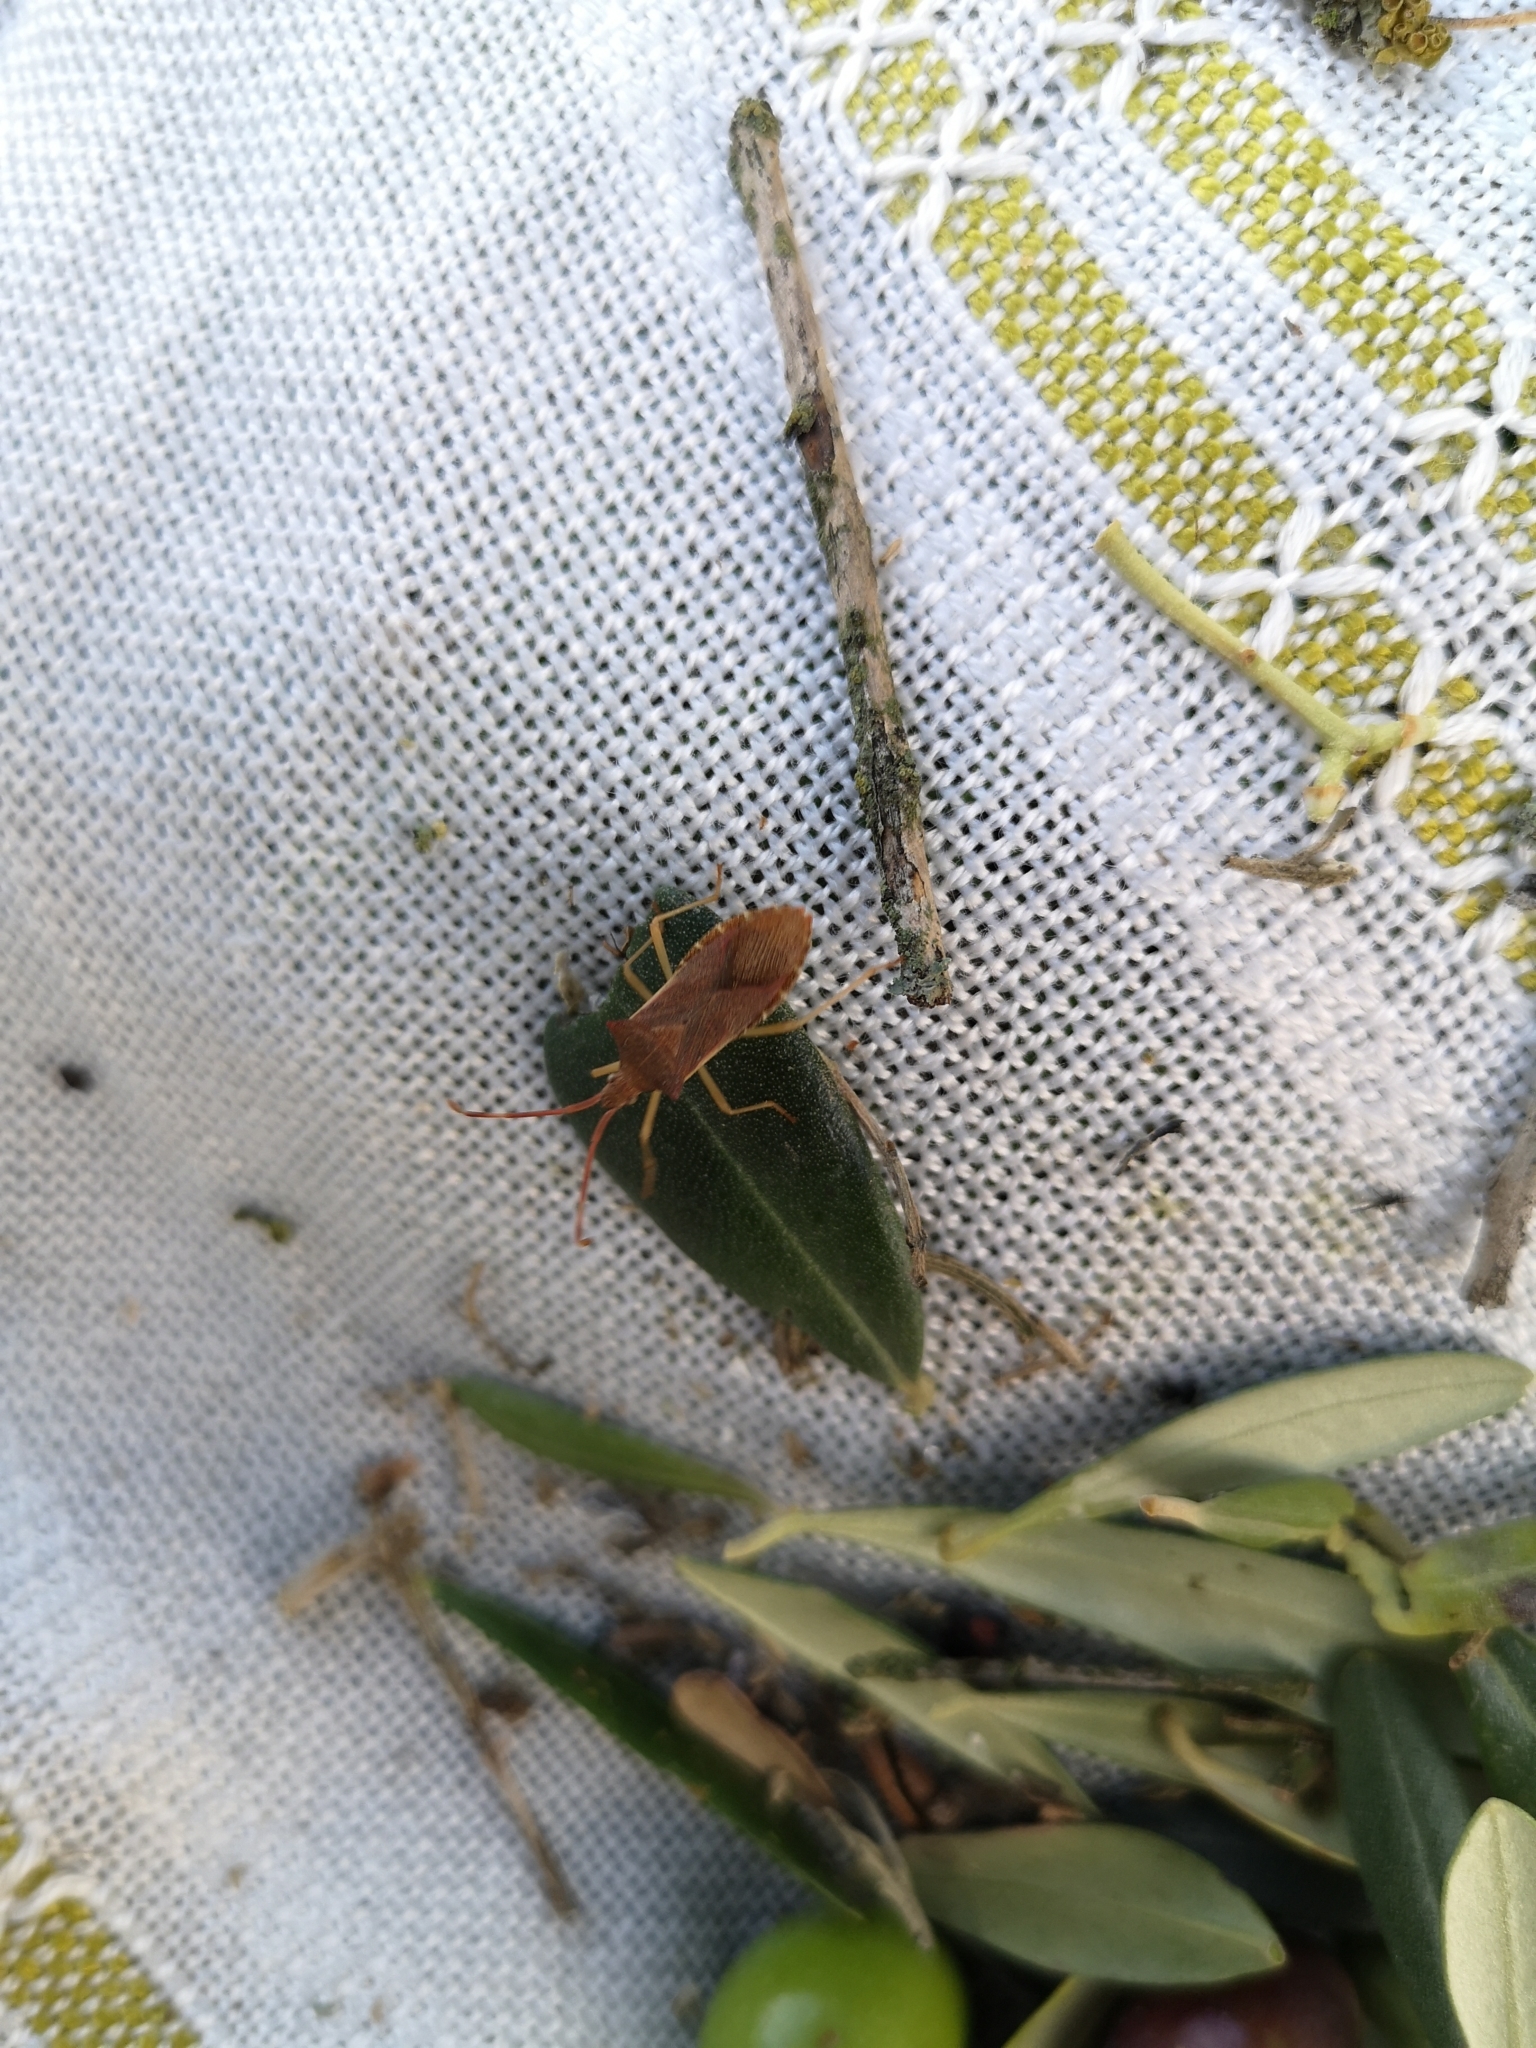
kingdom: Animalia
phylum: Arthropoda
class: Insecta
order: Hemiptera
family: Coreidae
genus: Gonocerus
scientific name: Gonocerus acuteangulatus
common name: Box bug
